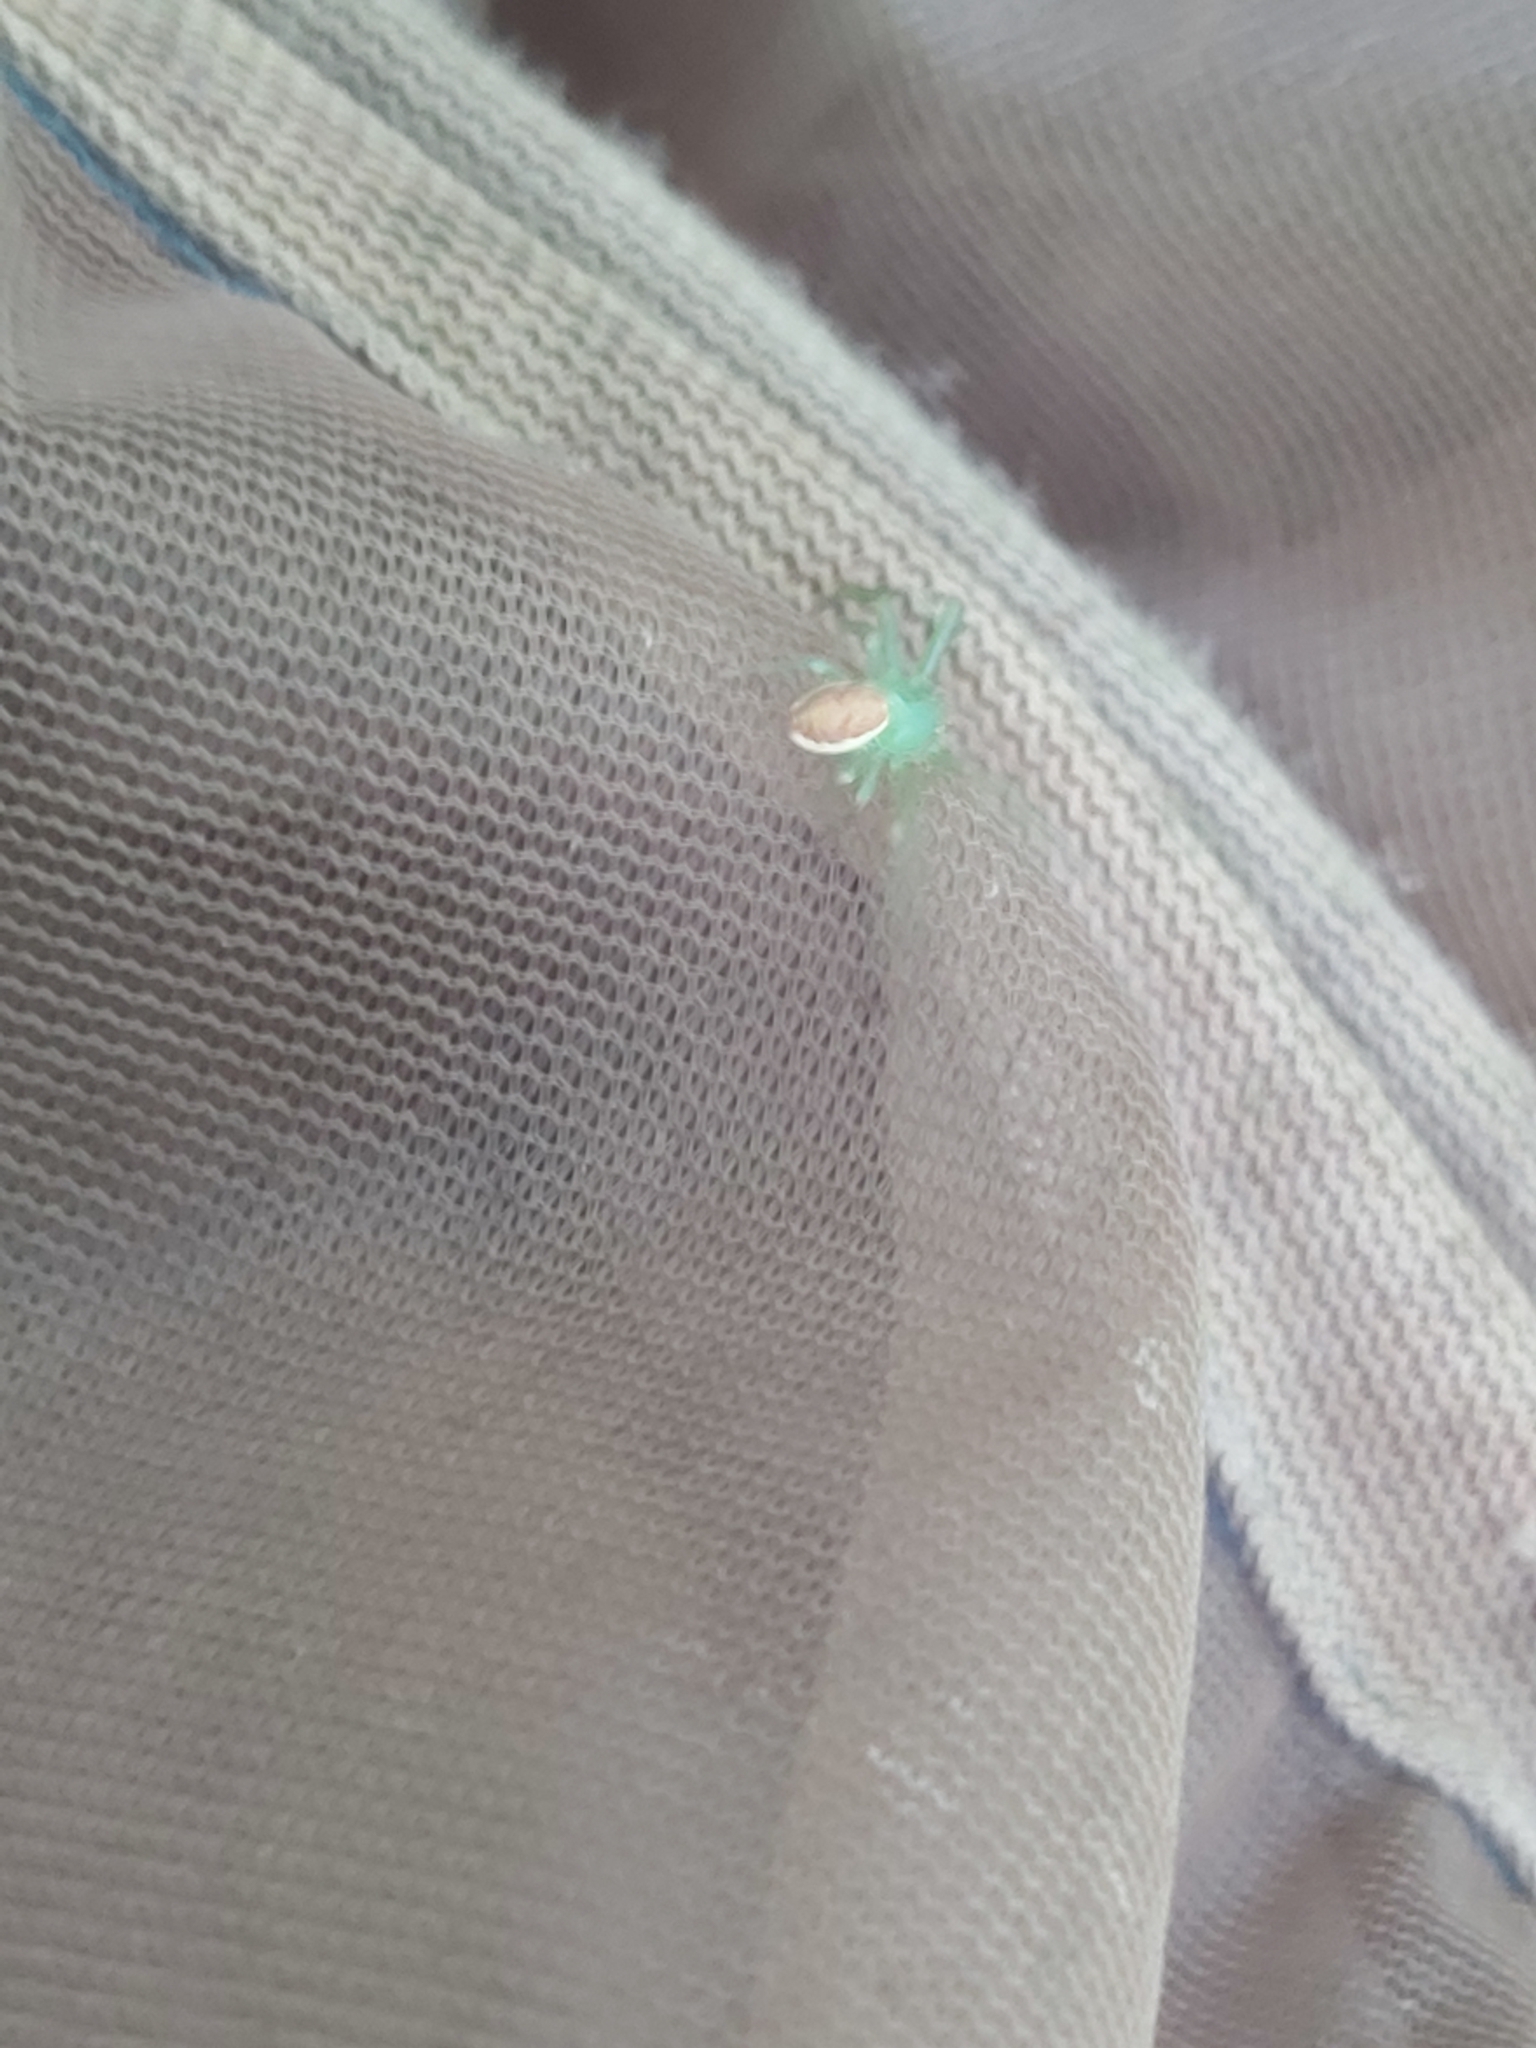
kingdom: Animalia
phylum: Arthropoda
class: Arachnida
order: Araneae
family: Thomisidae
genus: Diaea
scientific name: Diaea dorsata
